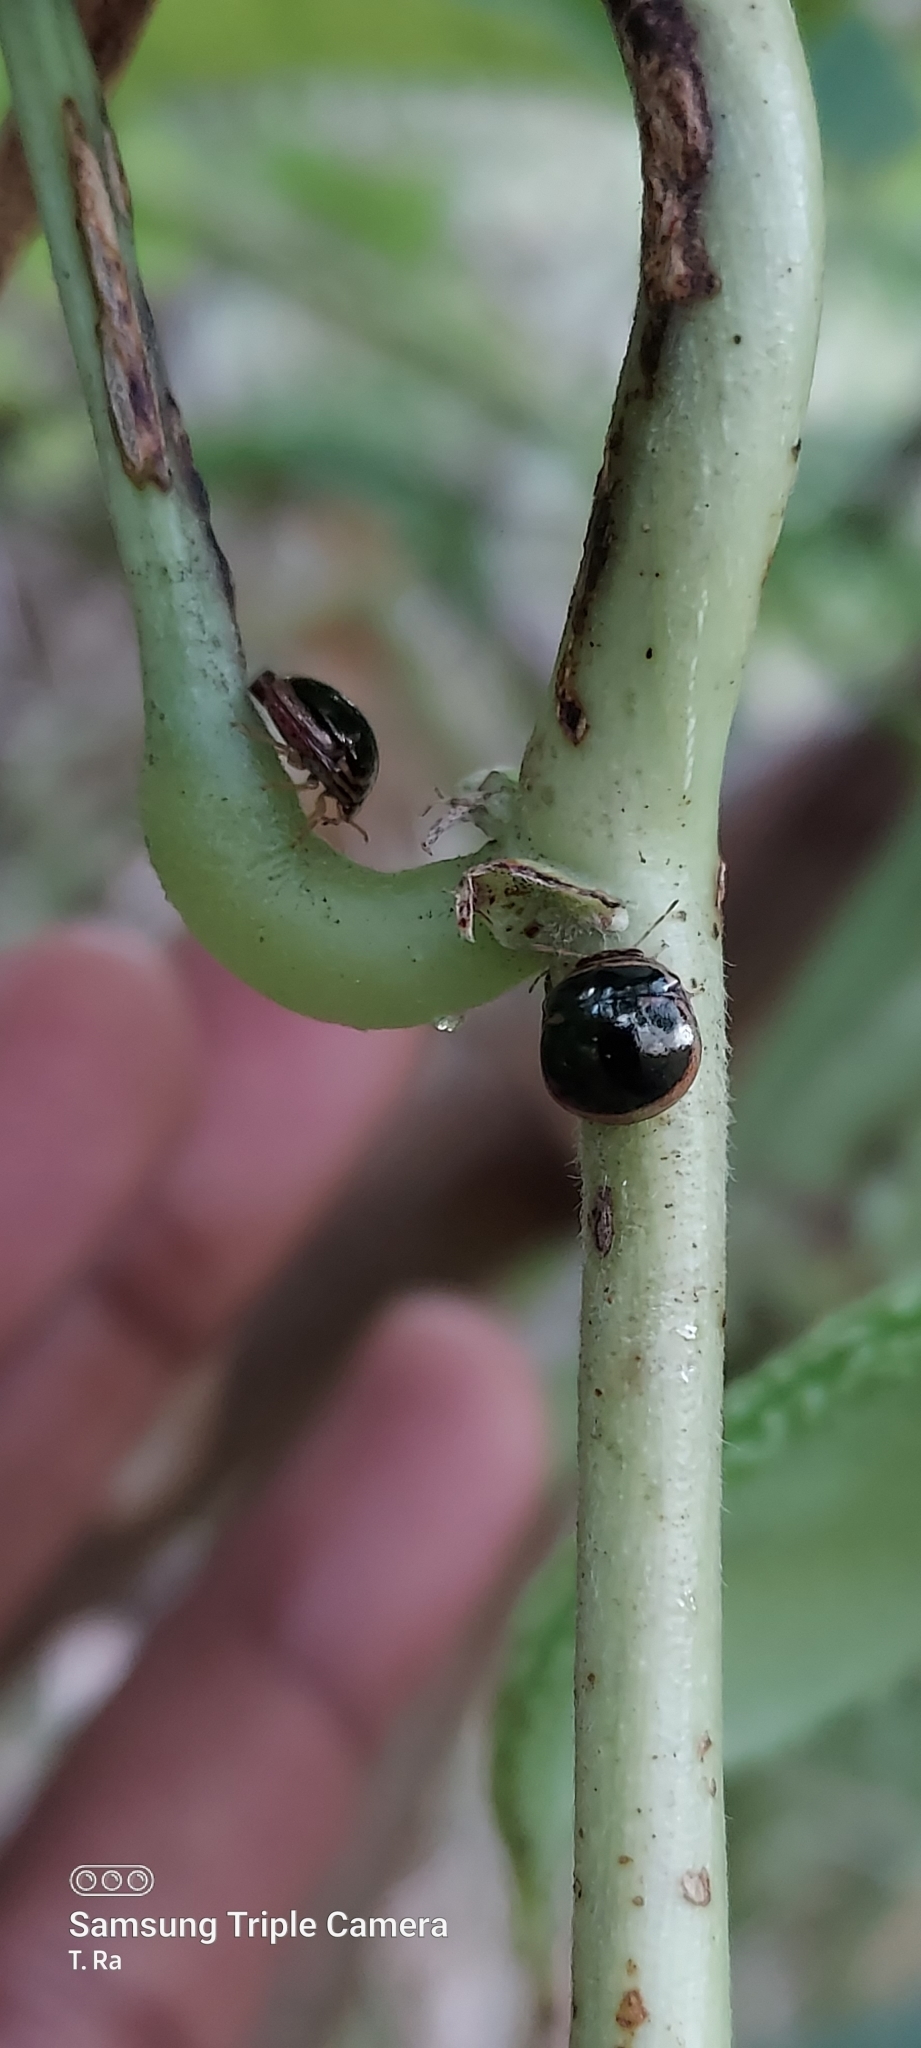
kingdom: Animalia
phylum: Arthropoda
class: Insecta
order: Hemiptera
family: Plataspidae
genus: Coptosoma
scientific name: Coptosoma
